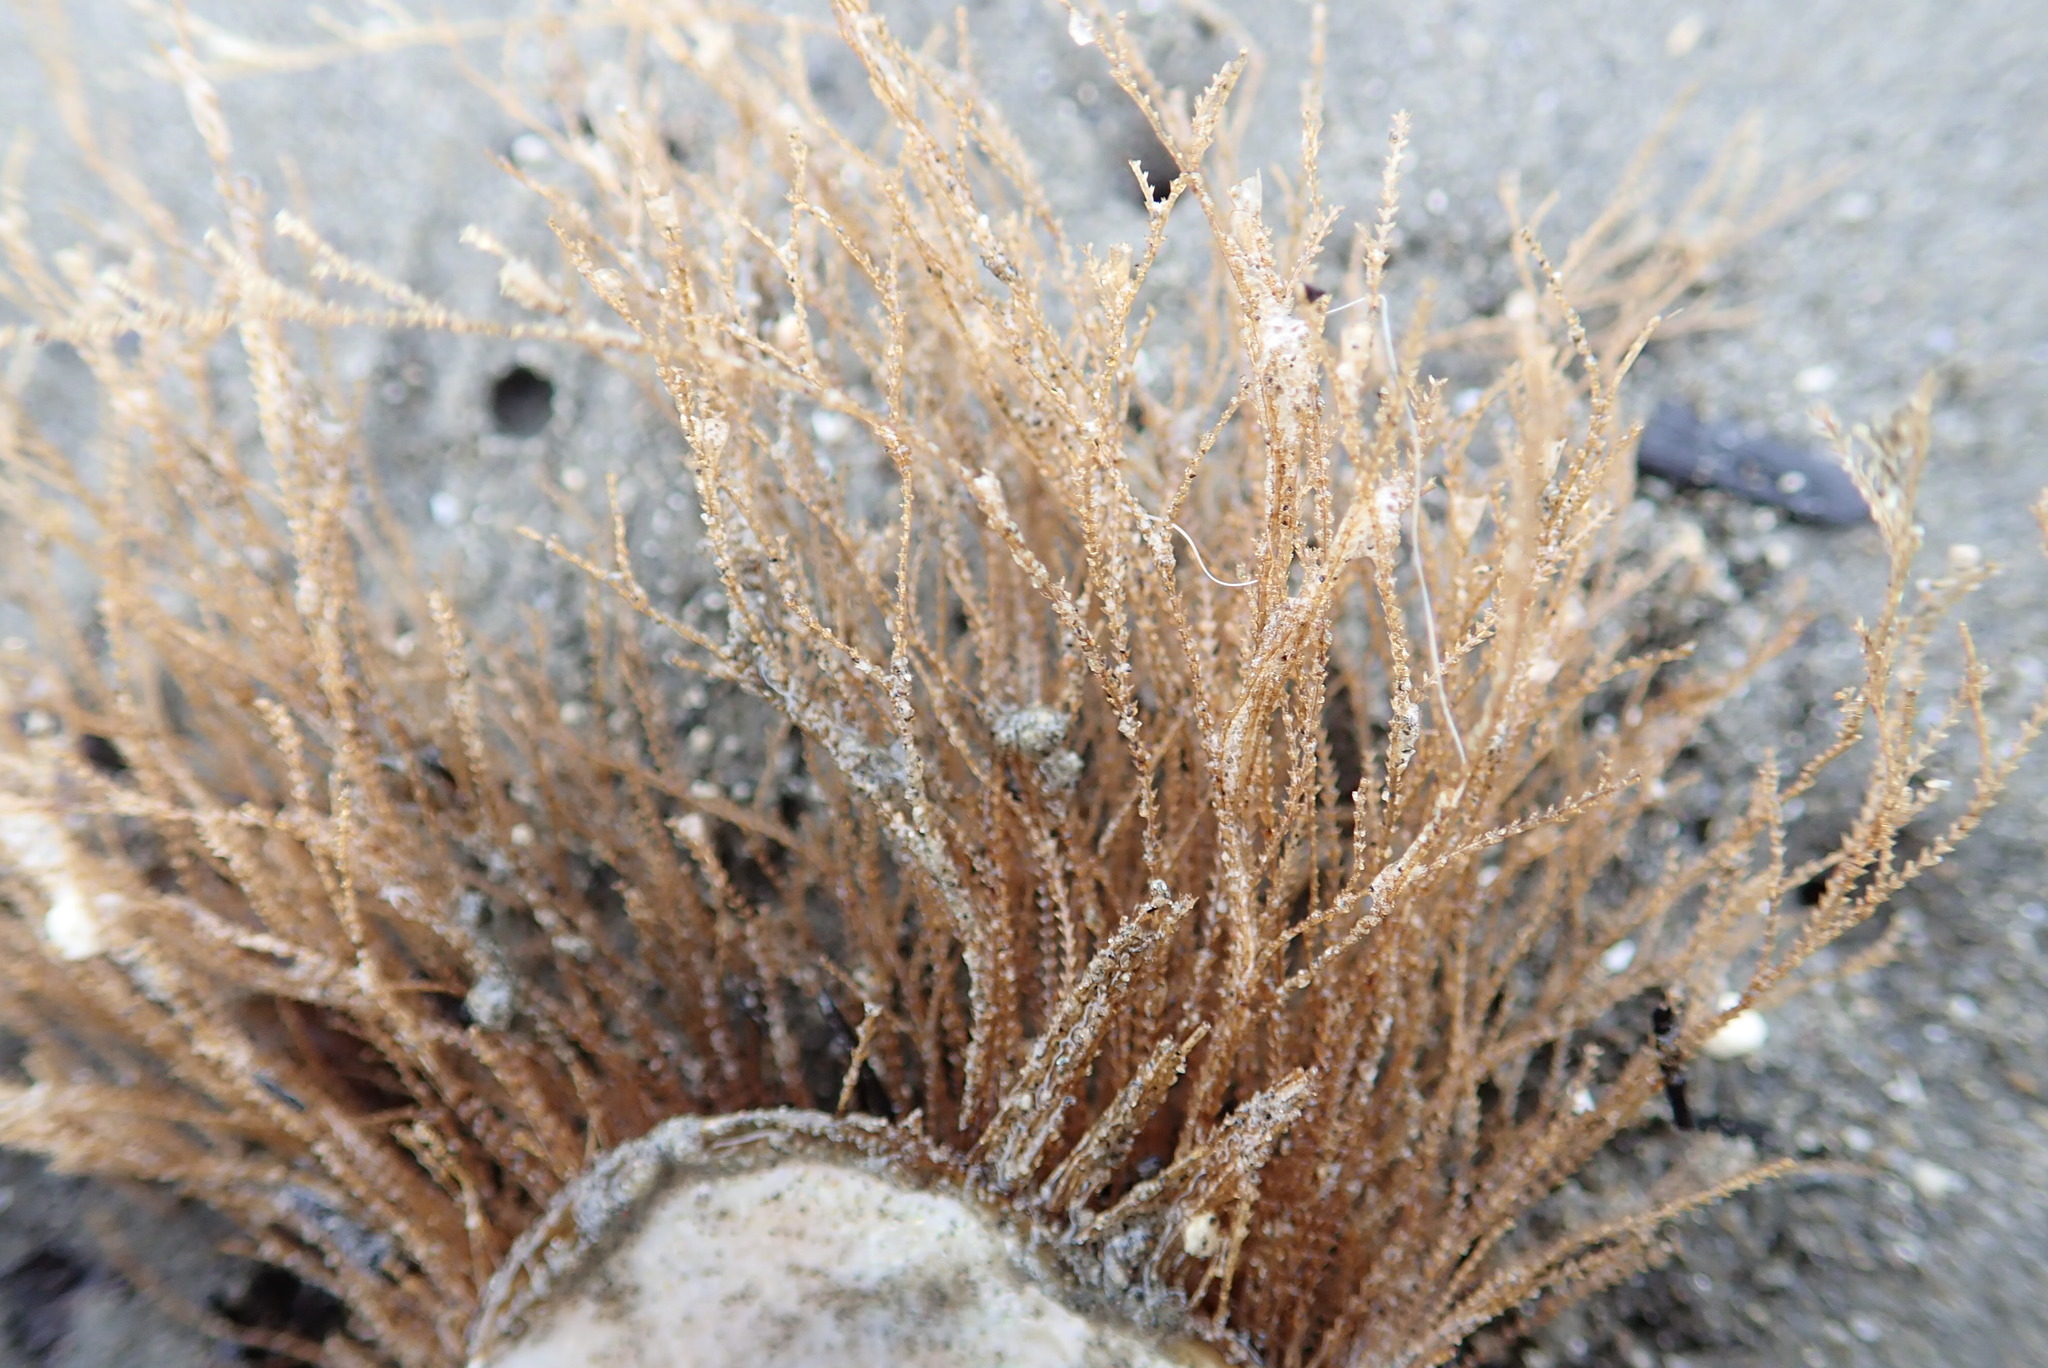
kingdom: Animalia
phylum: Cnidaria
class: Hydrozoa
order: Leptothecata
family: Sertulariidae
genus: Amphisbetia
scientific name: Amphisbetia bispinosa
